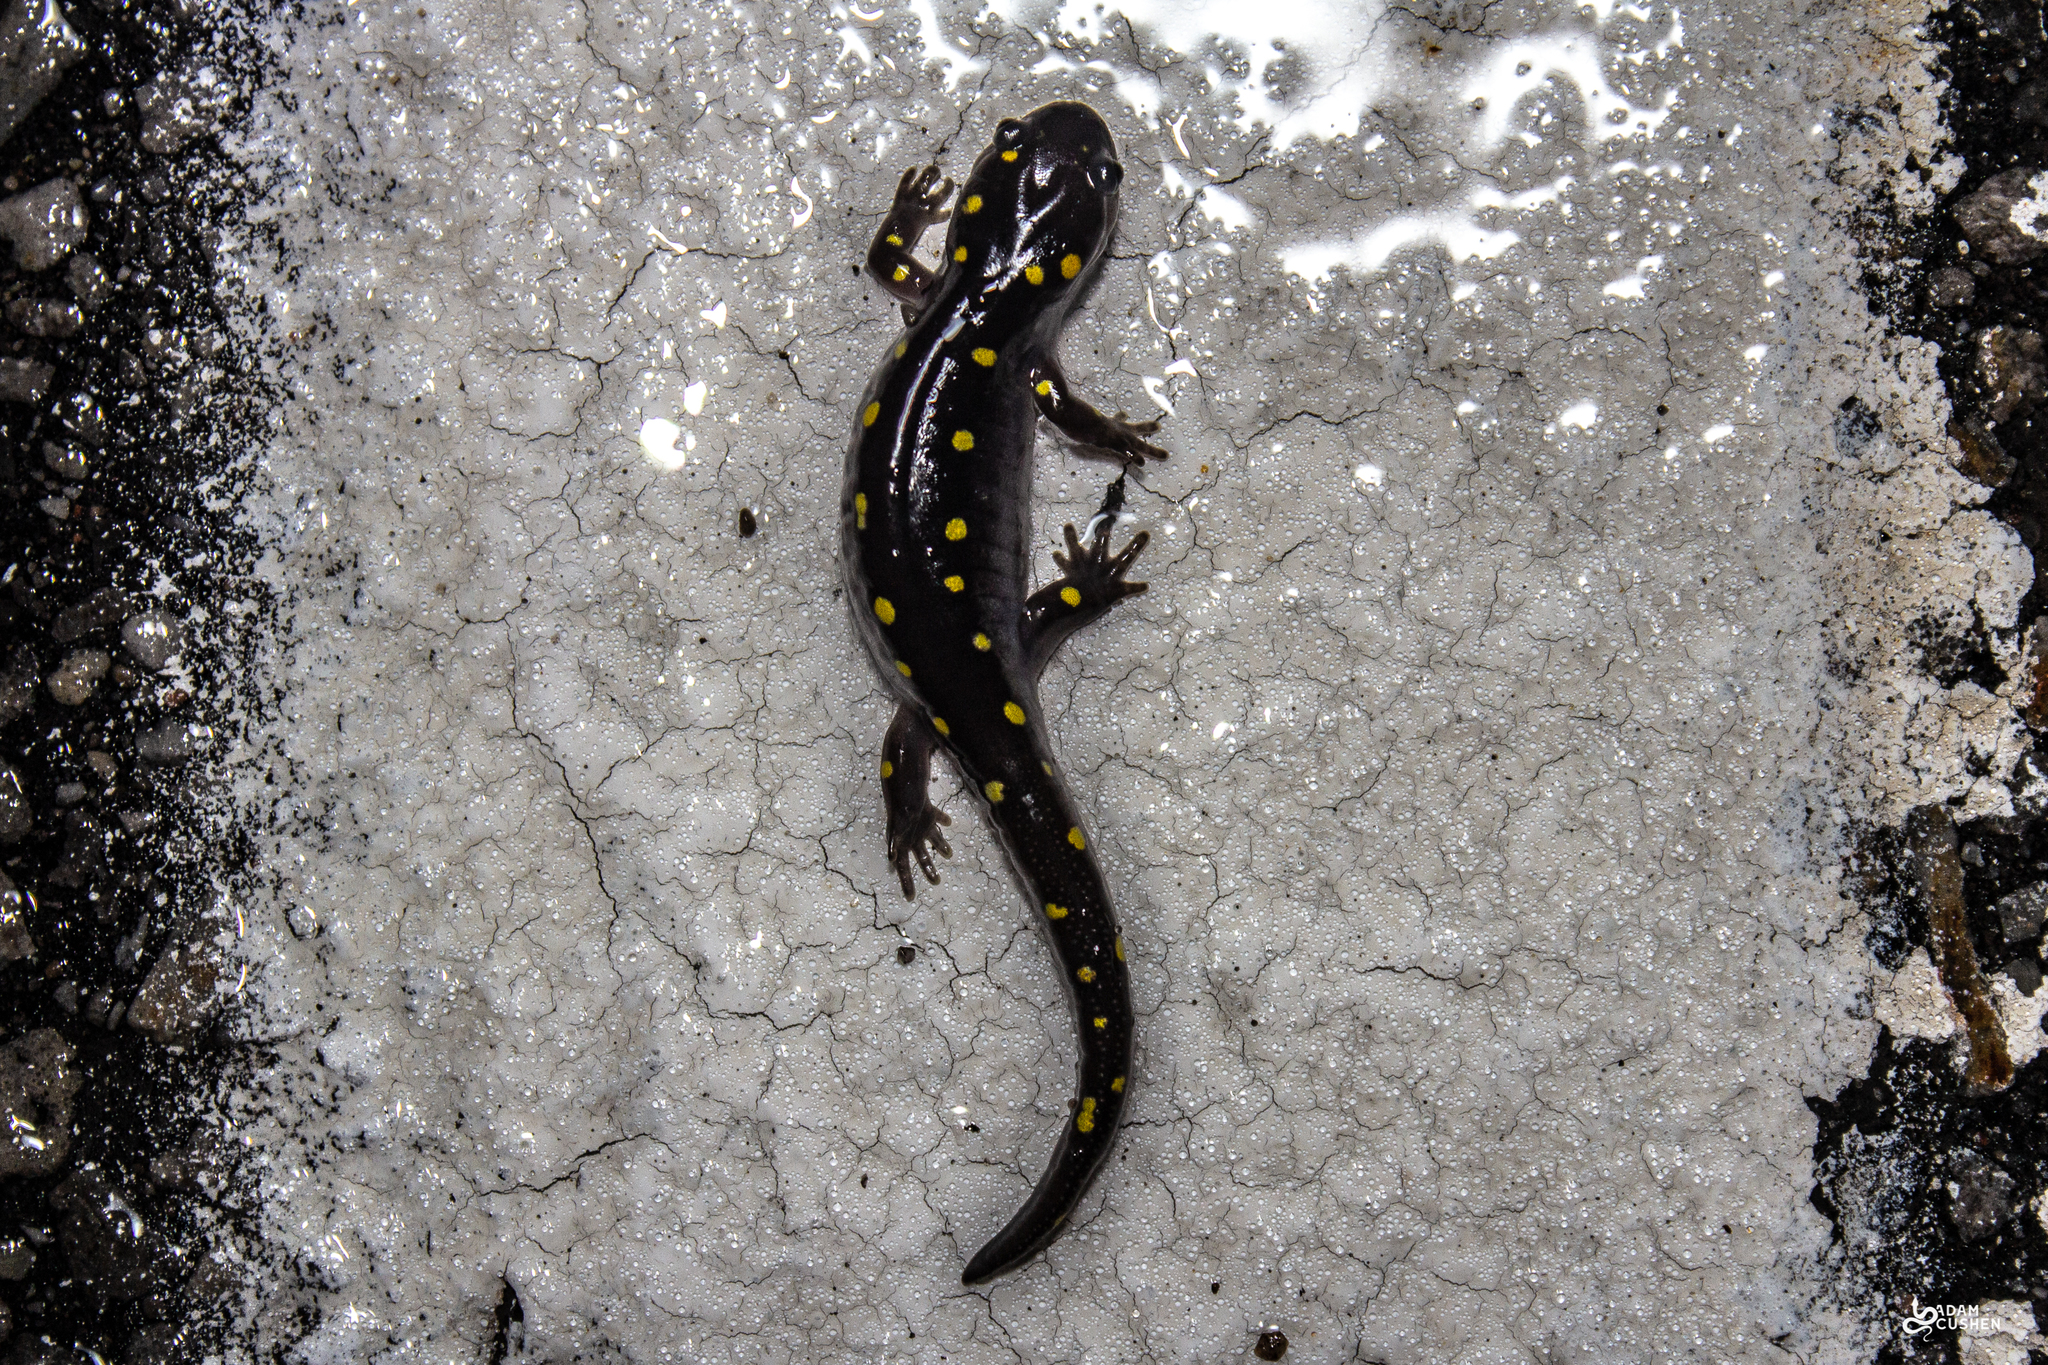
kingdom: Animalia
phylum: Chordata
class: Amphibia
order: Caudata
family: Ambystomatidae
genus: Ambystoma
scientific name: Ambystoma maculatum
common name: Spotted salamander
